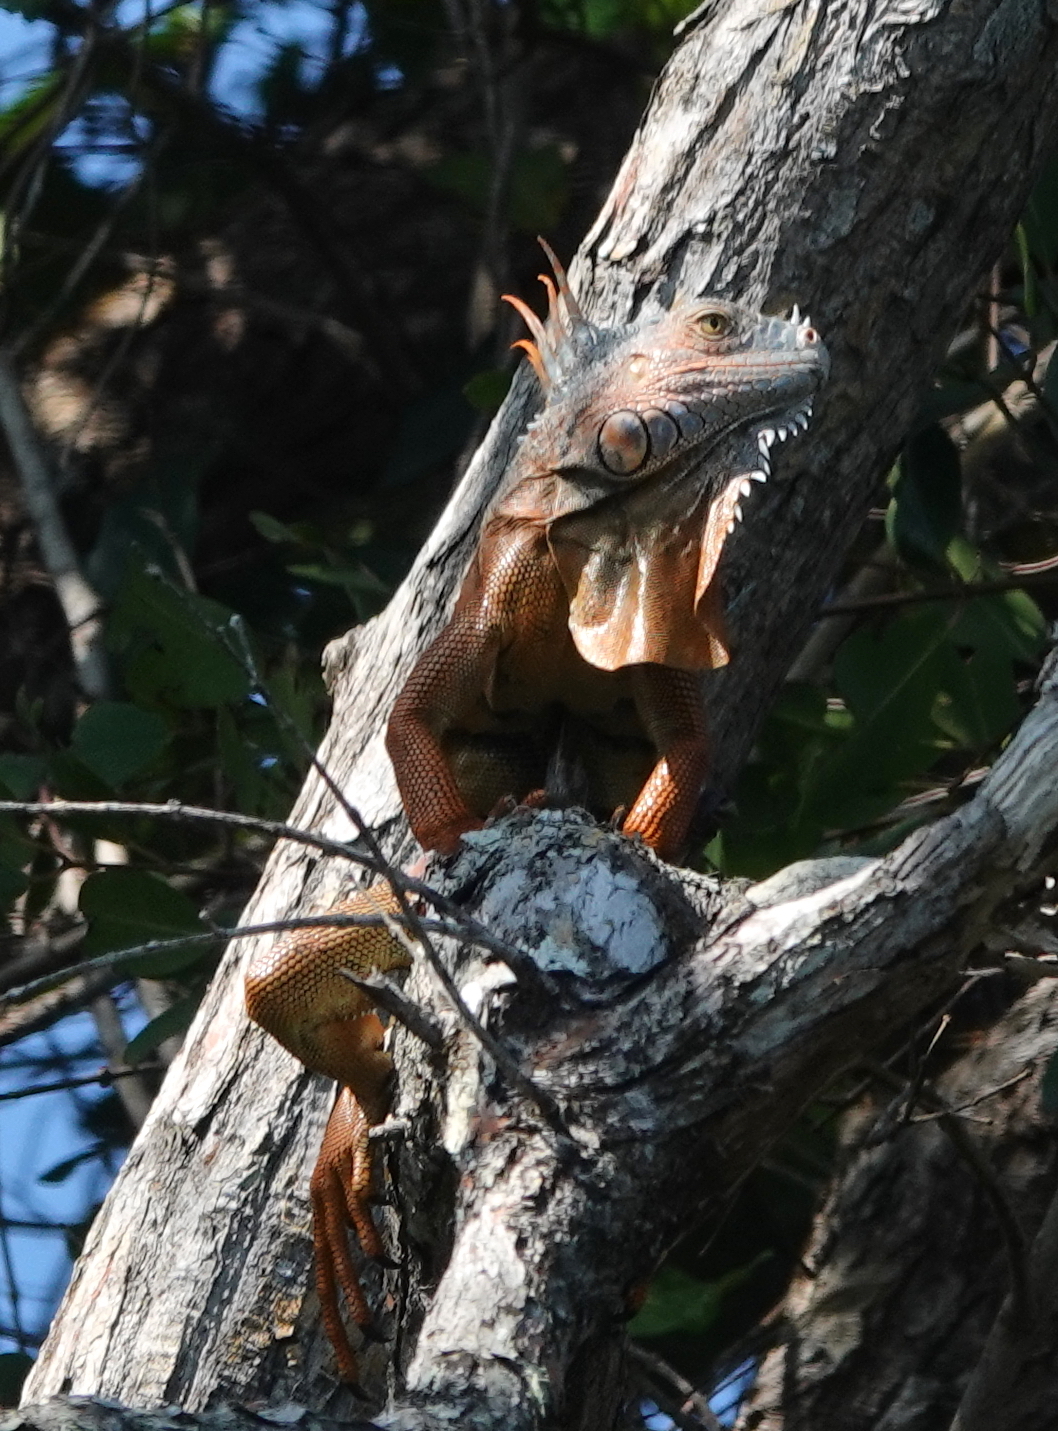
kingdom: Animalia
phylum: Chordata
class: Squamata
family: Iguanidae
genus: Iguana
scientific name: Iguana iguana
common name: Green iguana
